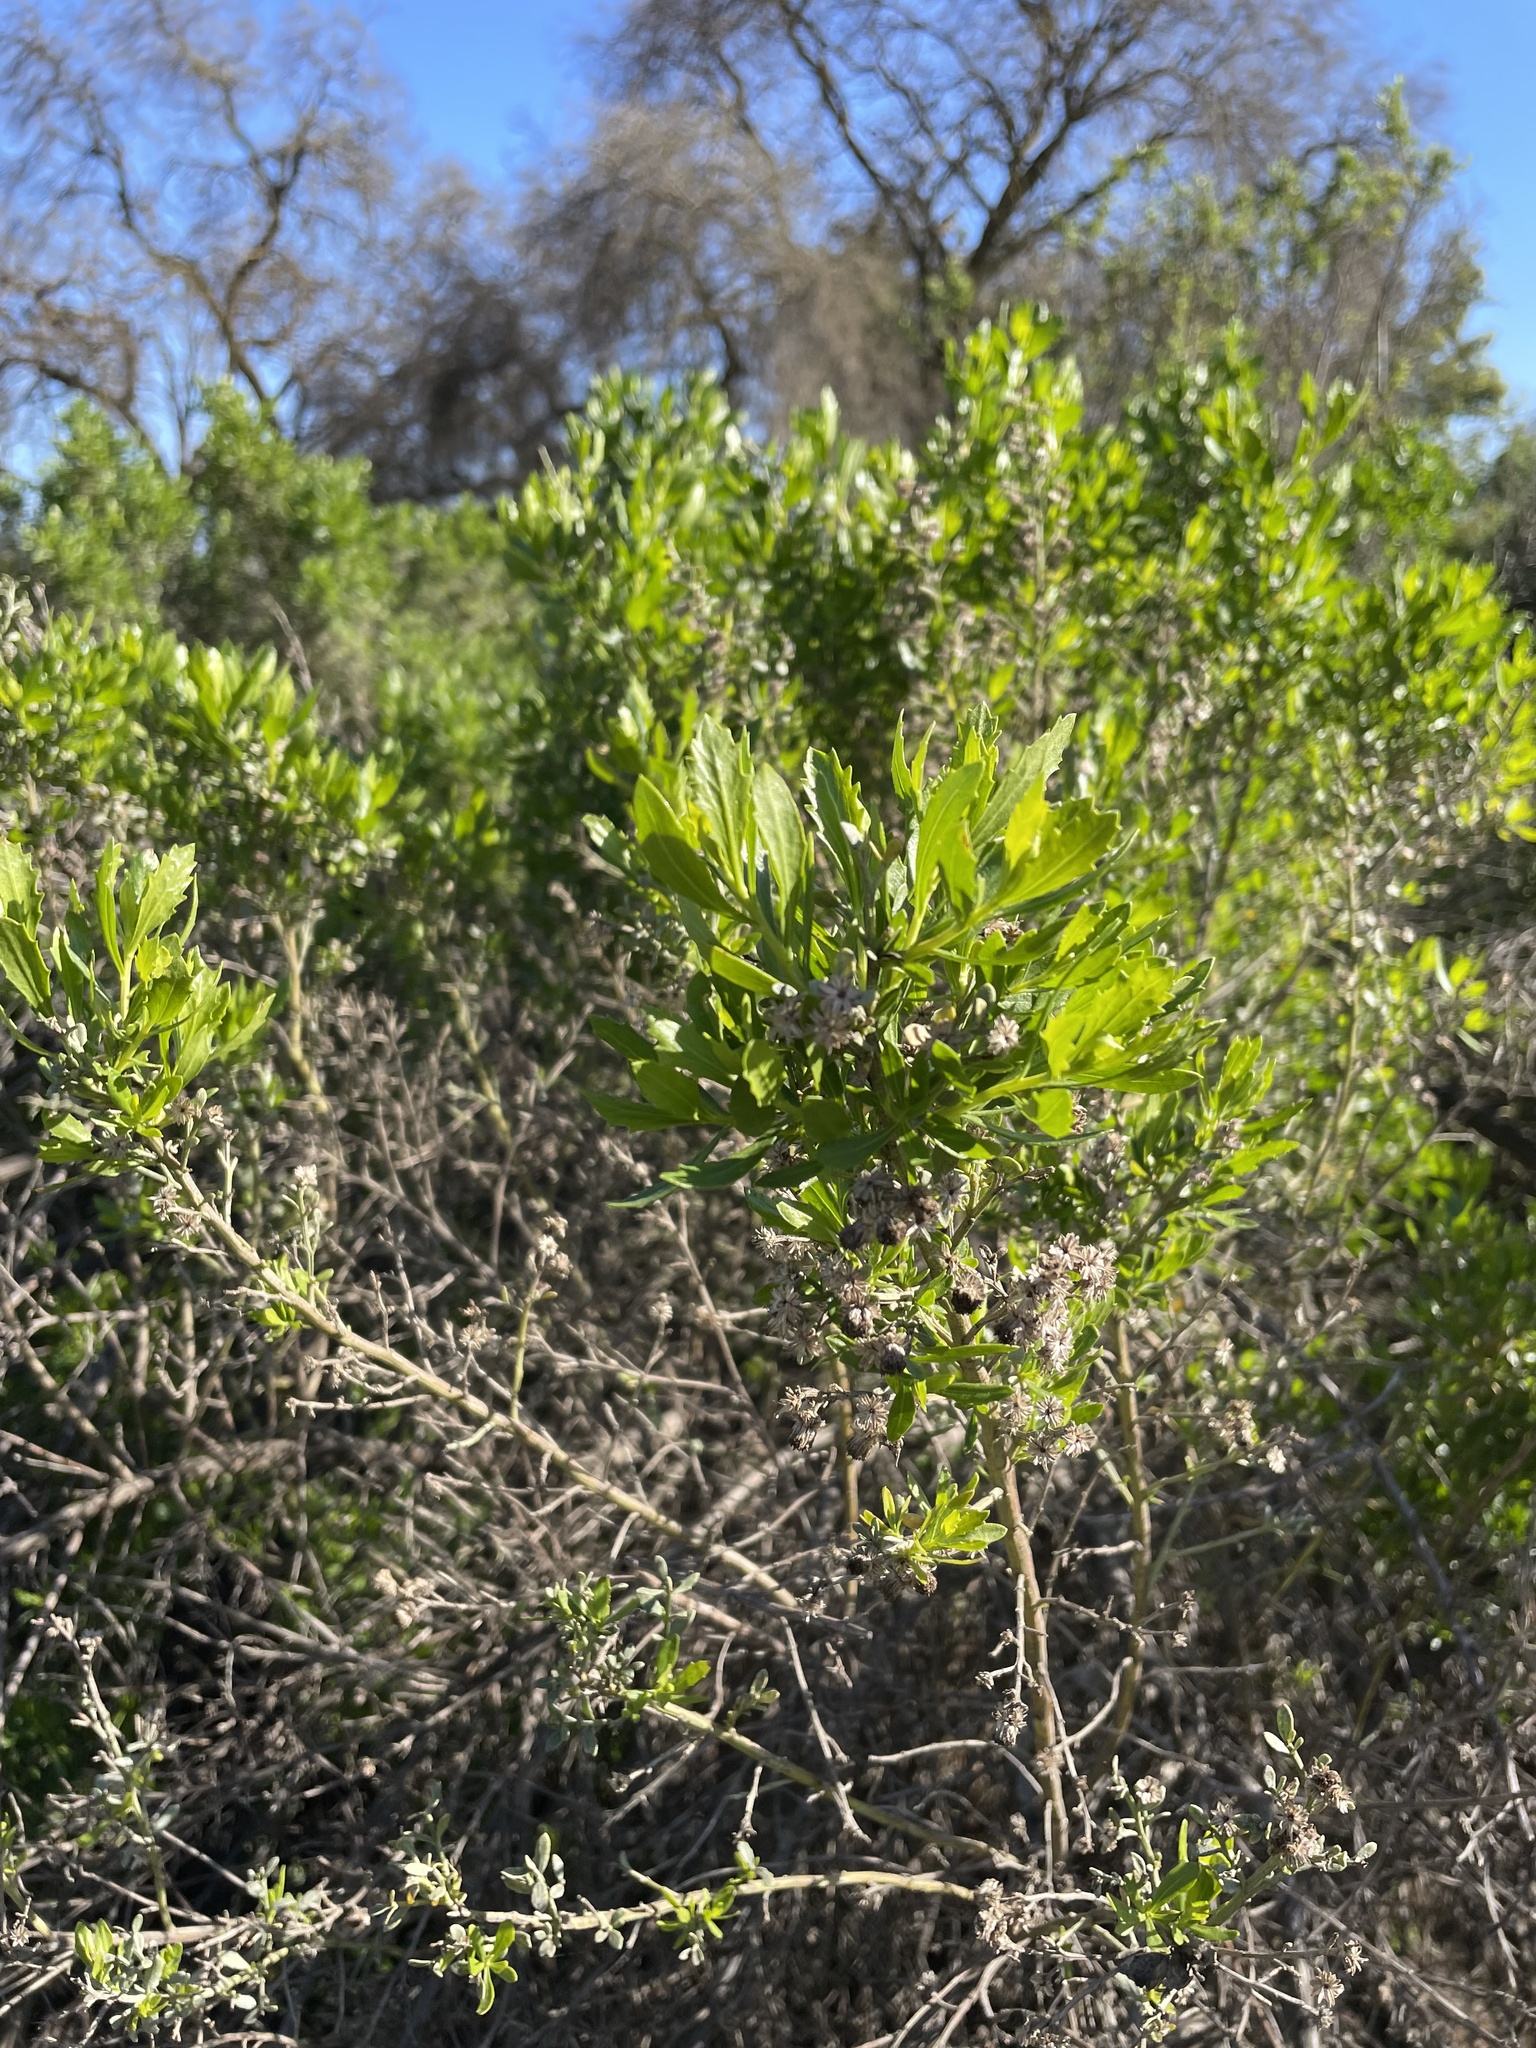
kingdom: Plantae
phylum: Tracheophyta
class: Magnoliopsida
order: Asterales
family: Asteraceae
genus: Baccharis
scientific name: Baccharis pilularis
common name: Coyotebrush
